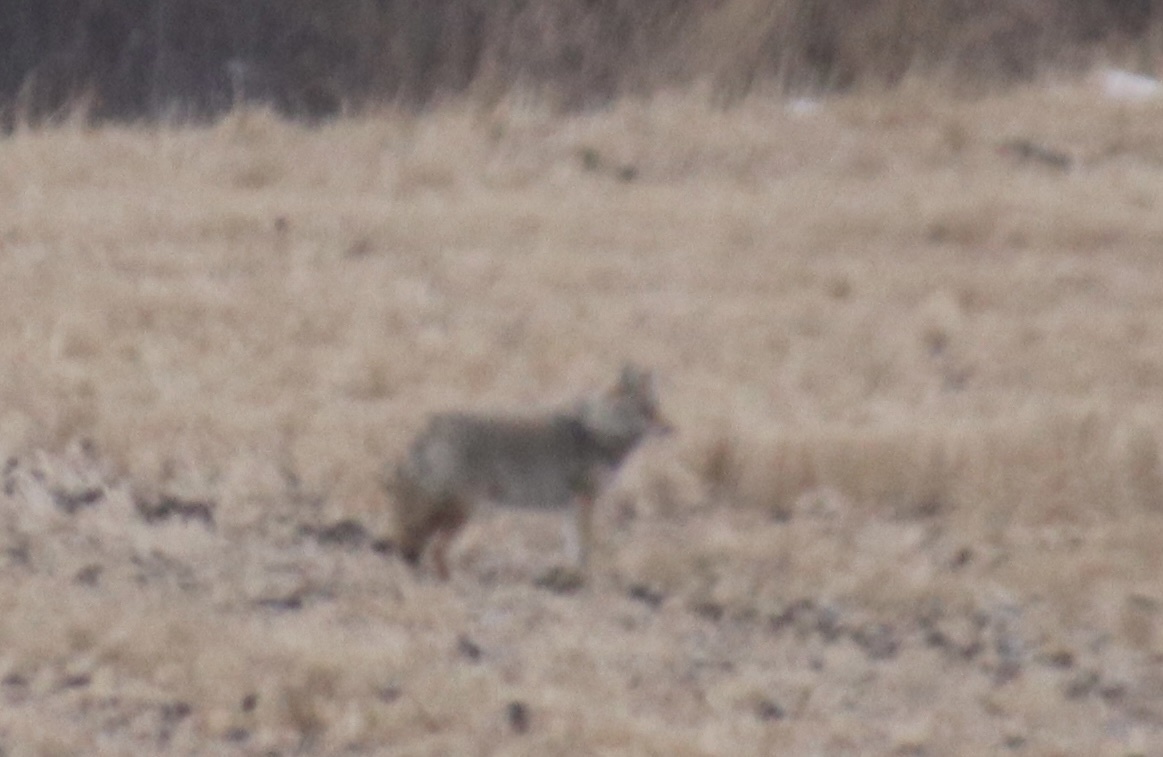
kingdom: Animalia
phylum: Chordata
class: Mammalia
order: Carnivora
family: Canidae
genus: Canis
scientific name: Canis latrans
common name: Coyote
